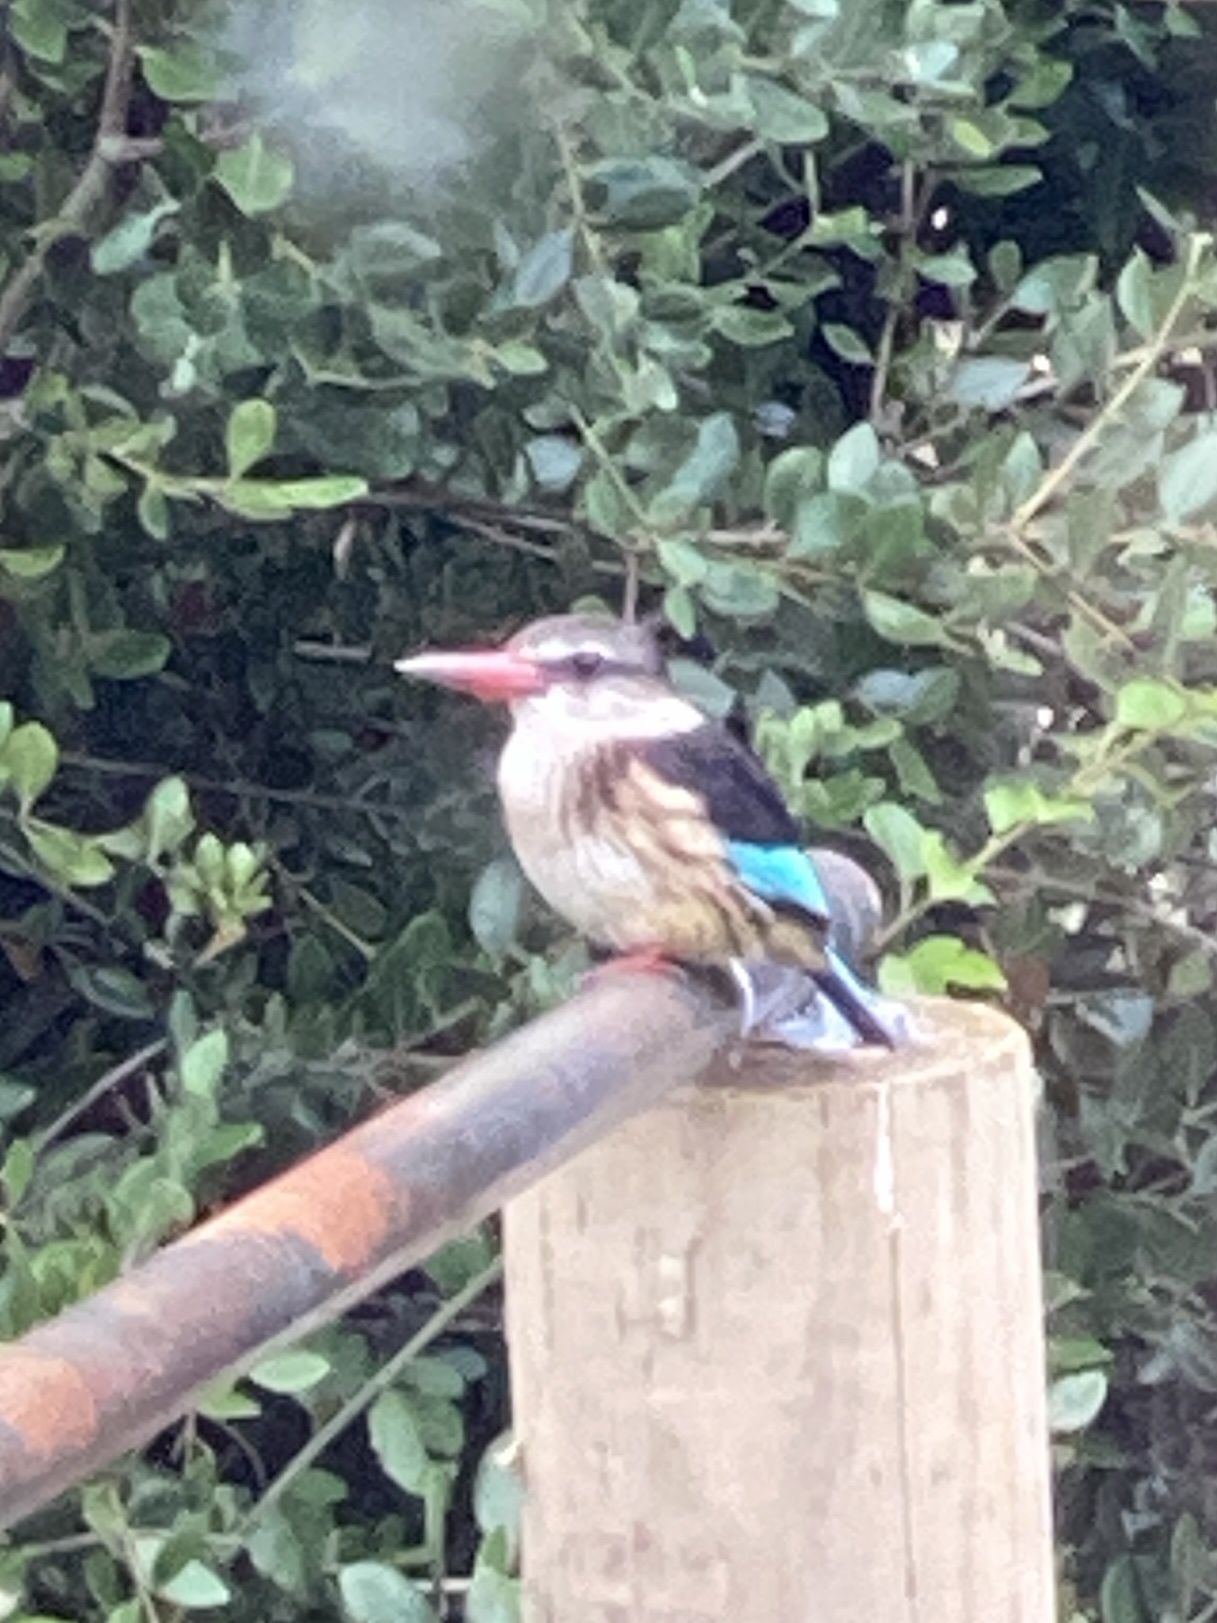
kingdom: Animalia
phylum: Chordata
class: Aves
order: Coraciiformes
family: Alcedinidae
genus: Halcyon
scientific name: Halcyon albiventris
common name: Brown-hooded kingfisher
